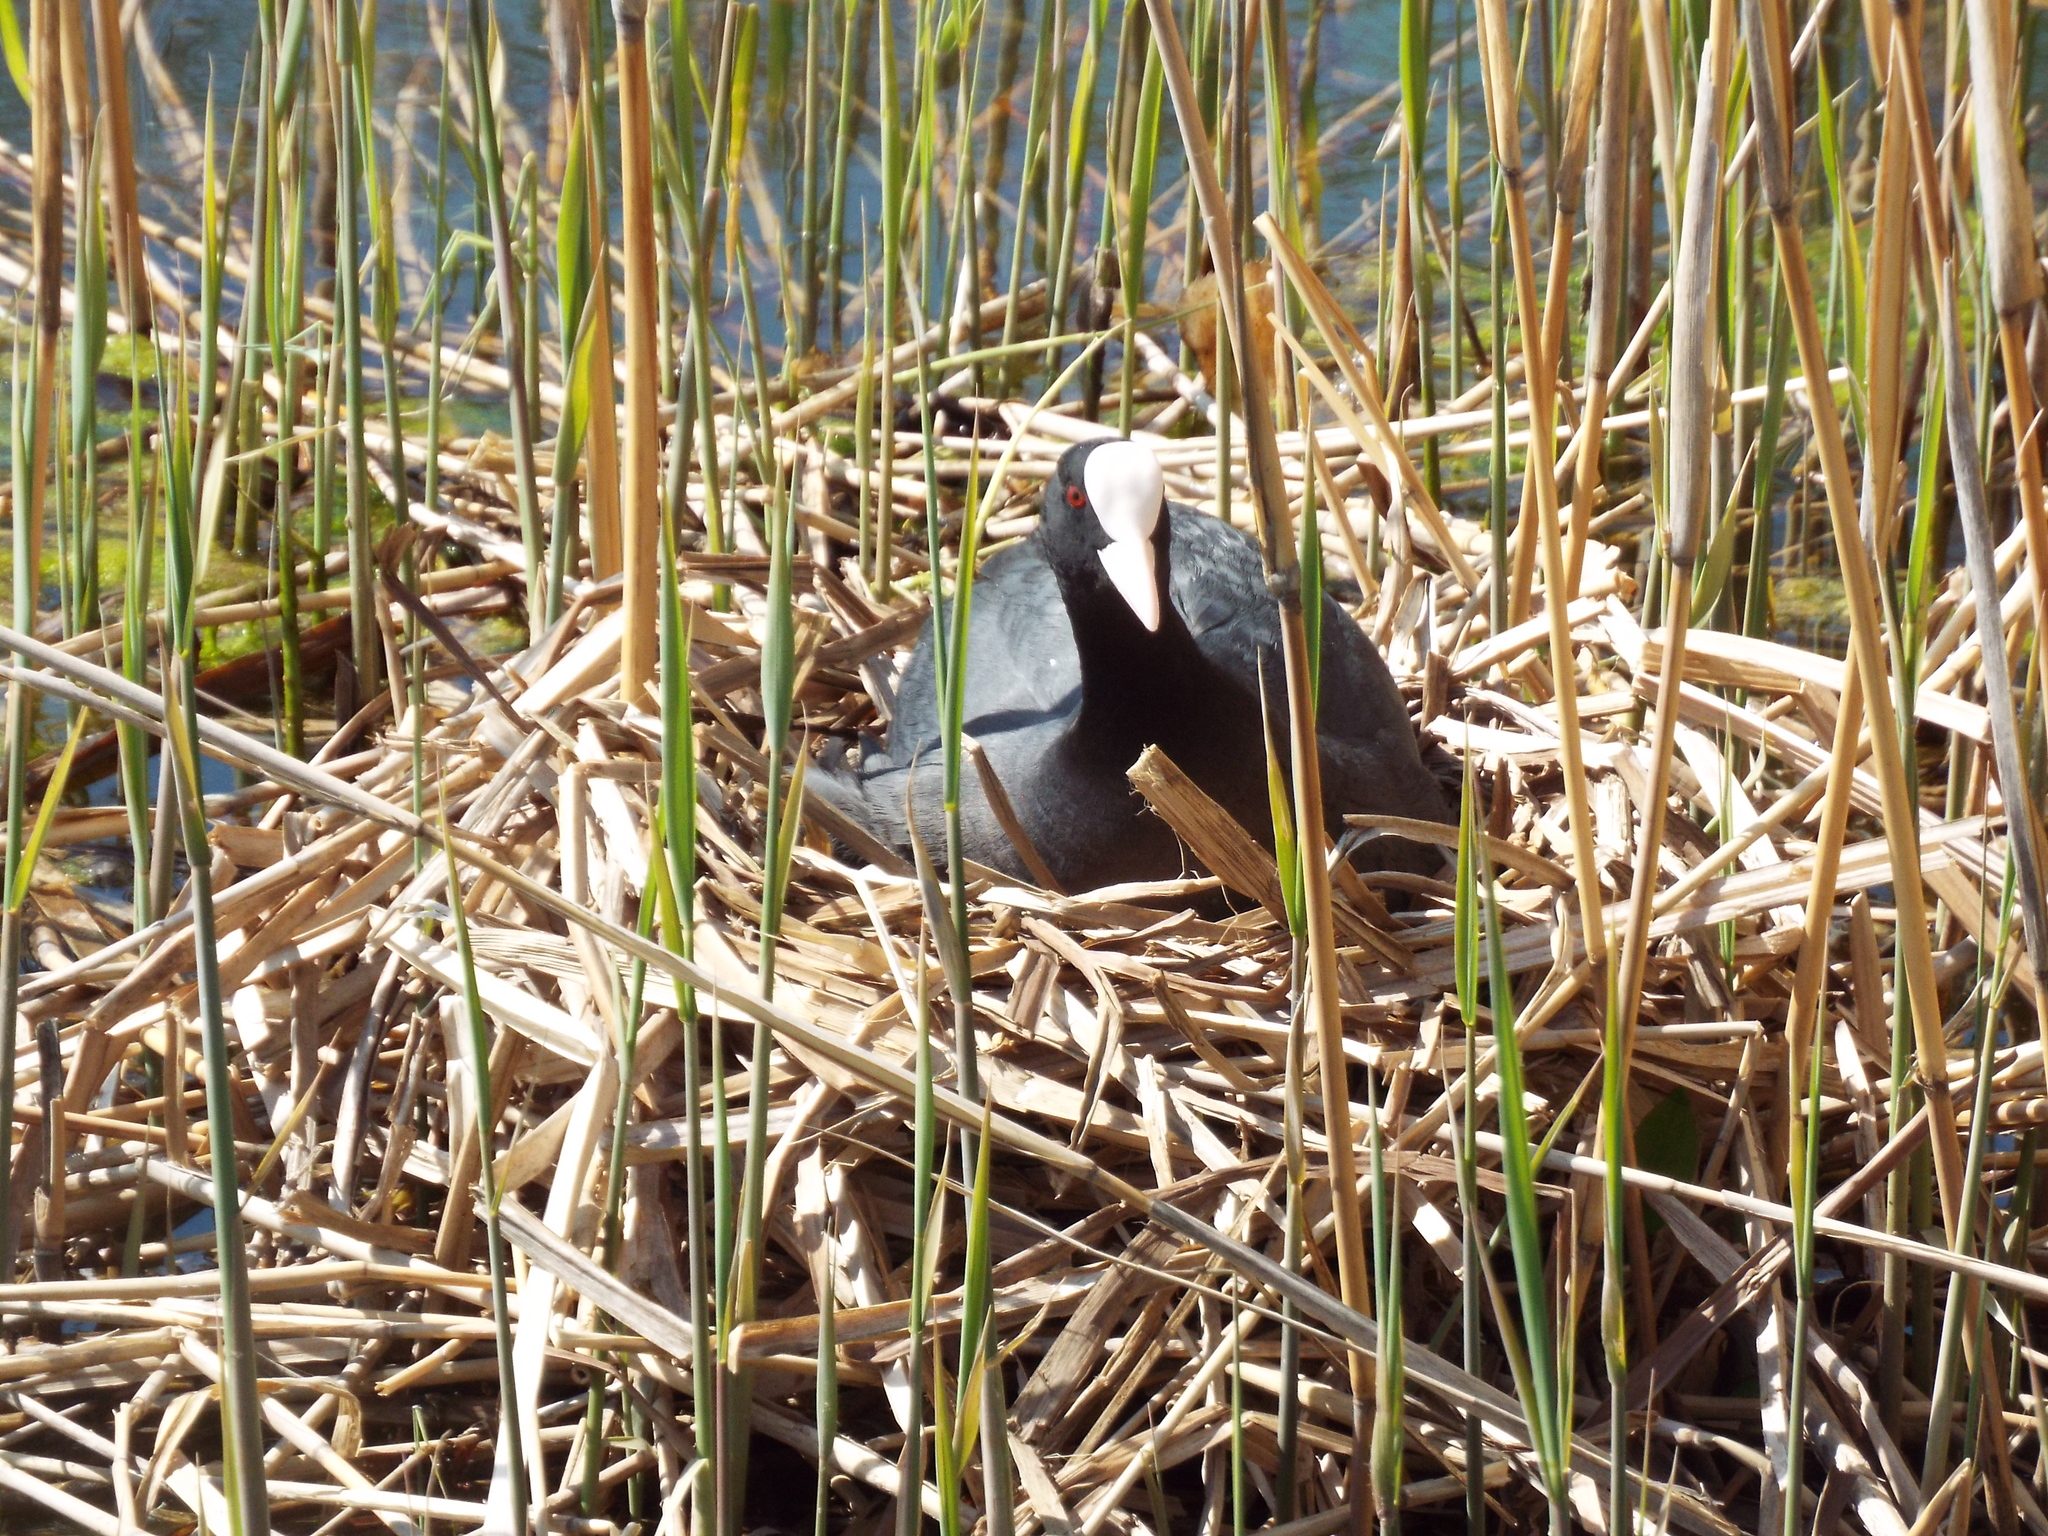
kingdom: Animalia
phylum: Chordata
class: Aves
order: Gruiformes
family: Rallidae
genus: Fulica
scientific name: Fulica atra
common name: Eurasian coot
